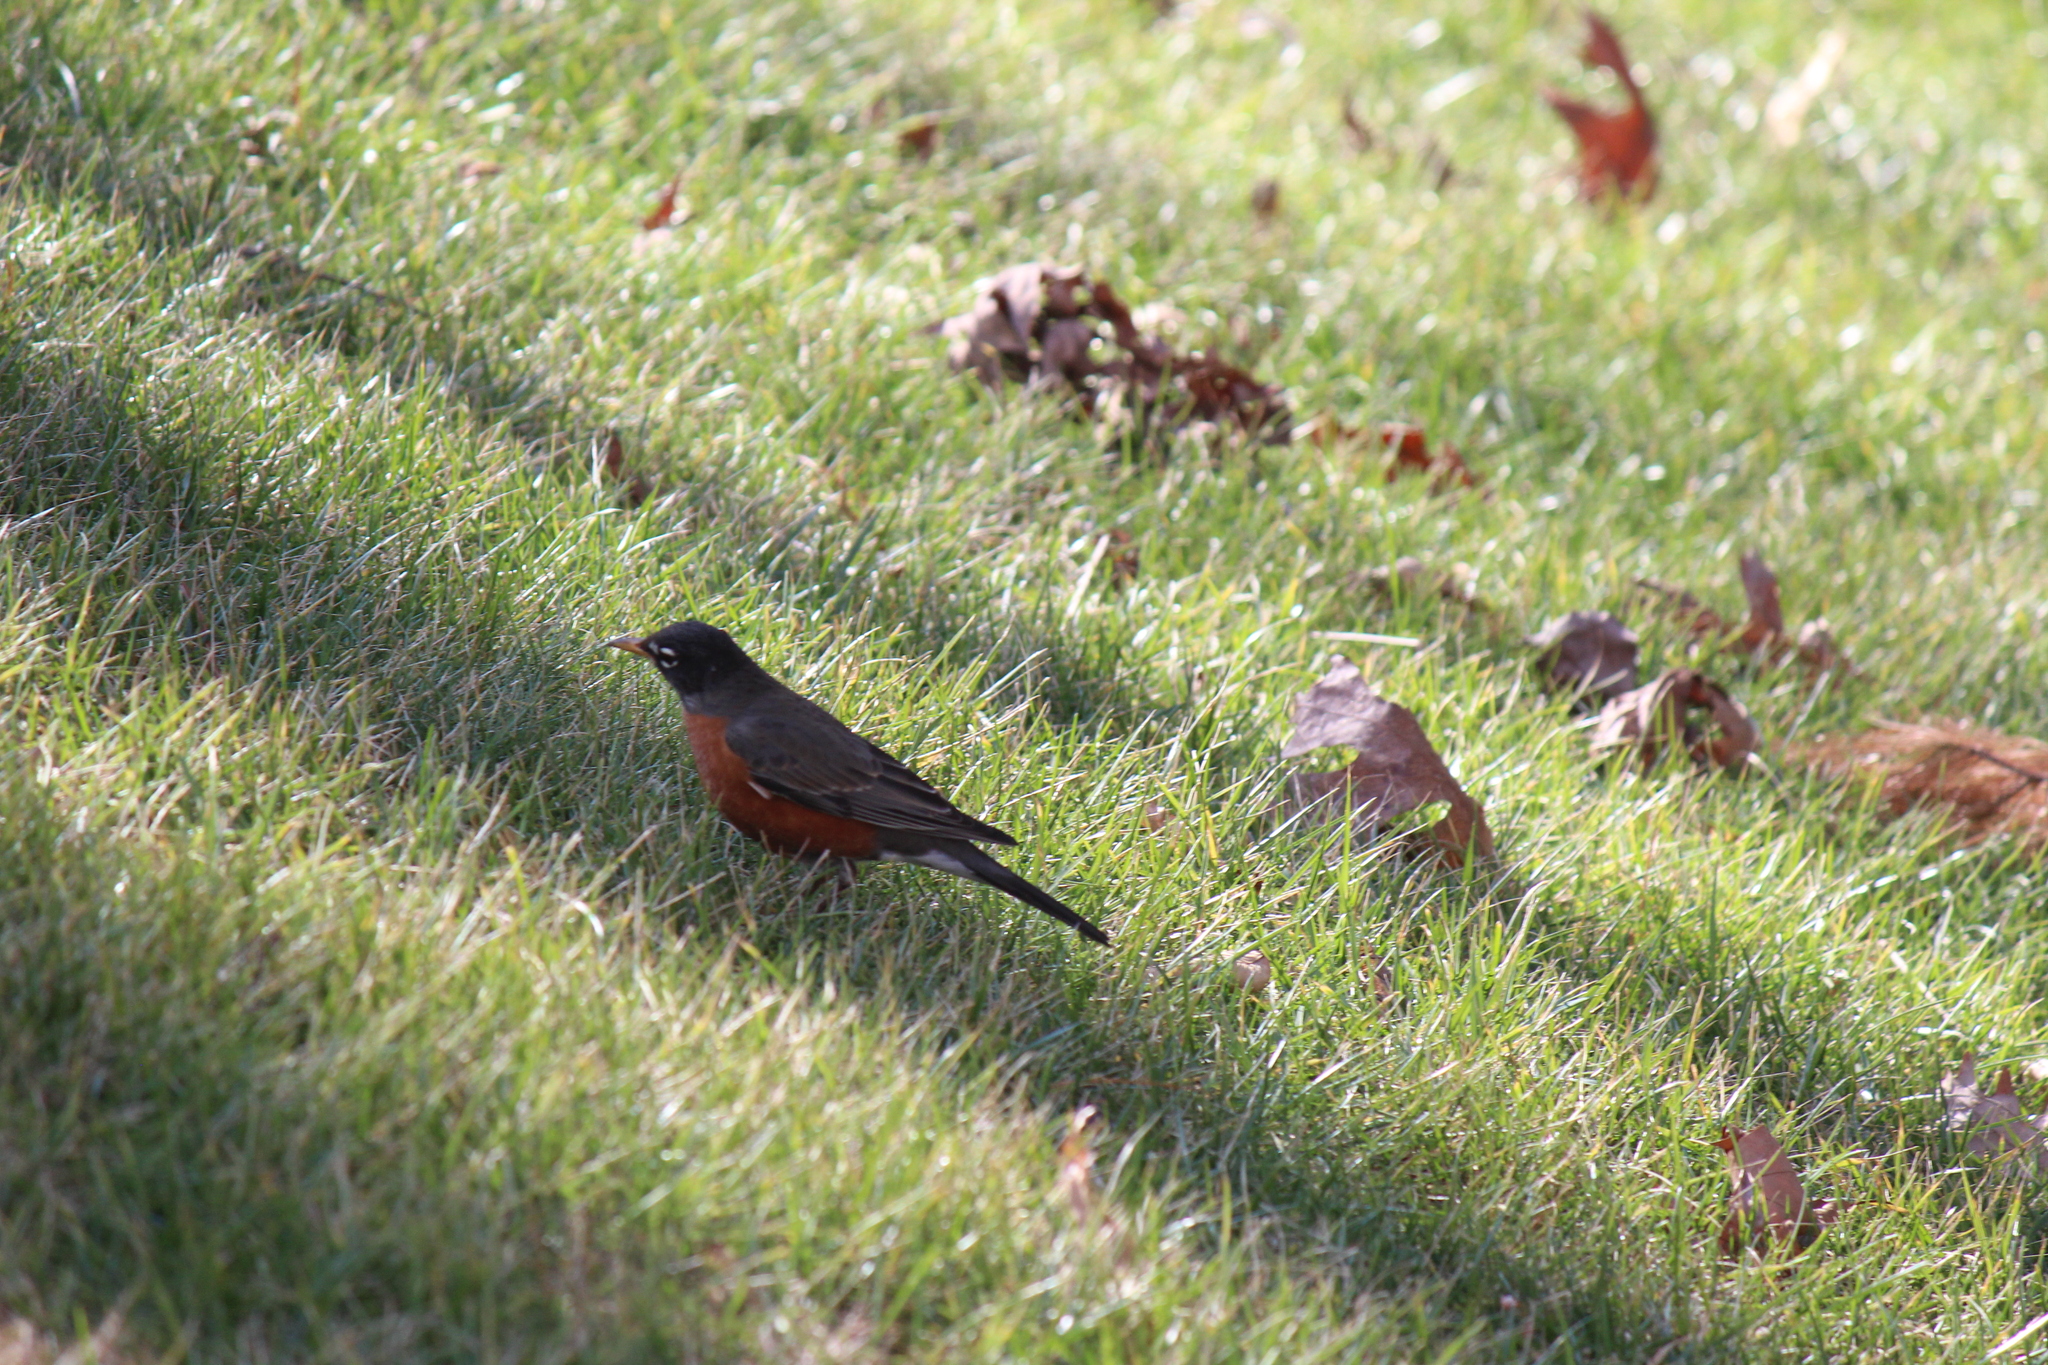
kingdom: Animalia
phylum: Chordata
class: Aves
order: Passeriformes
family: Turdidae
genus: Turdus
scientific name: Turdus migratorius
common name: American robin
